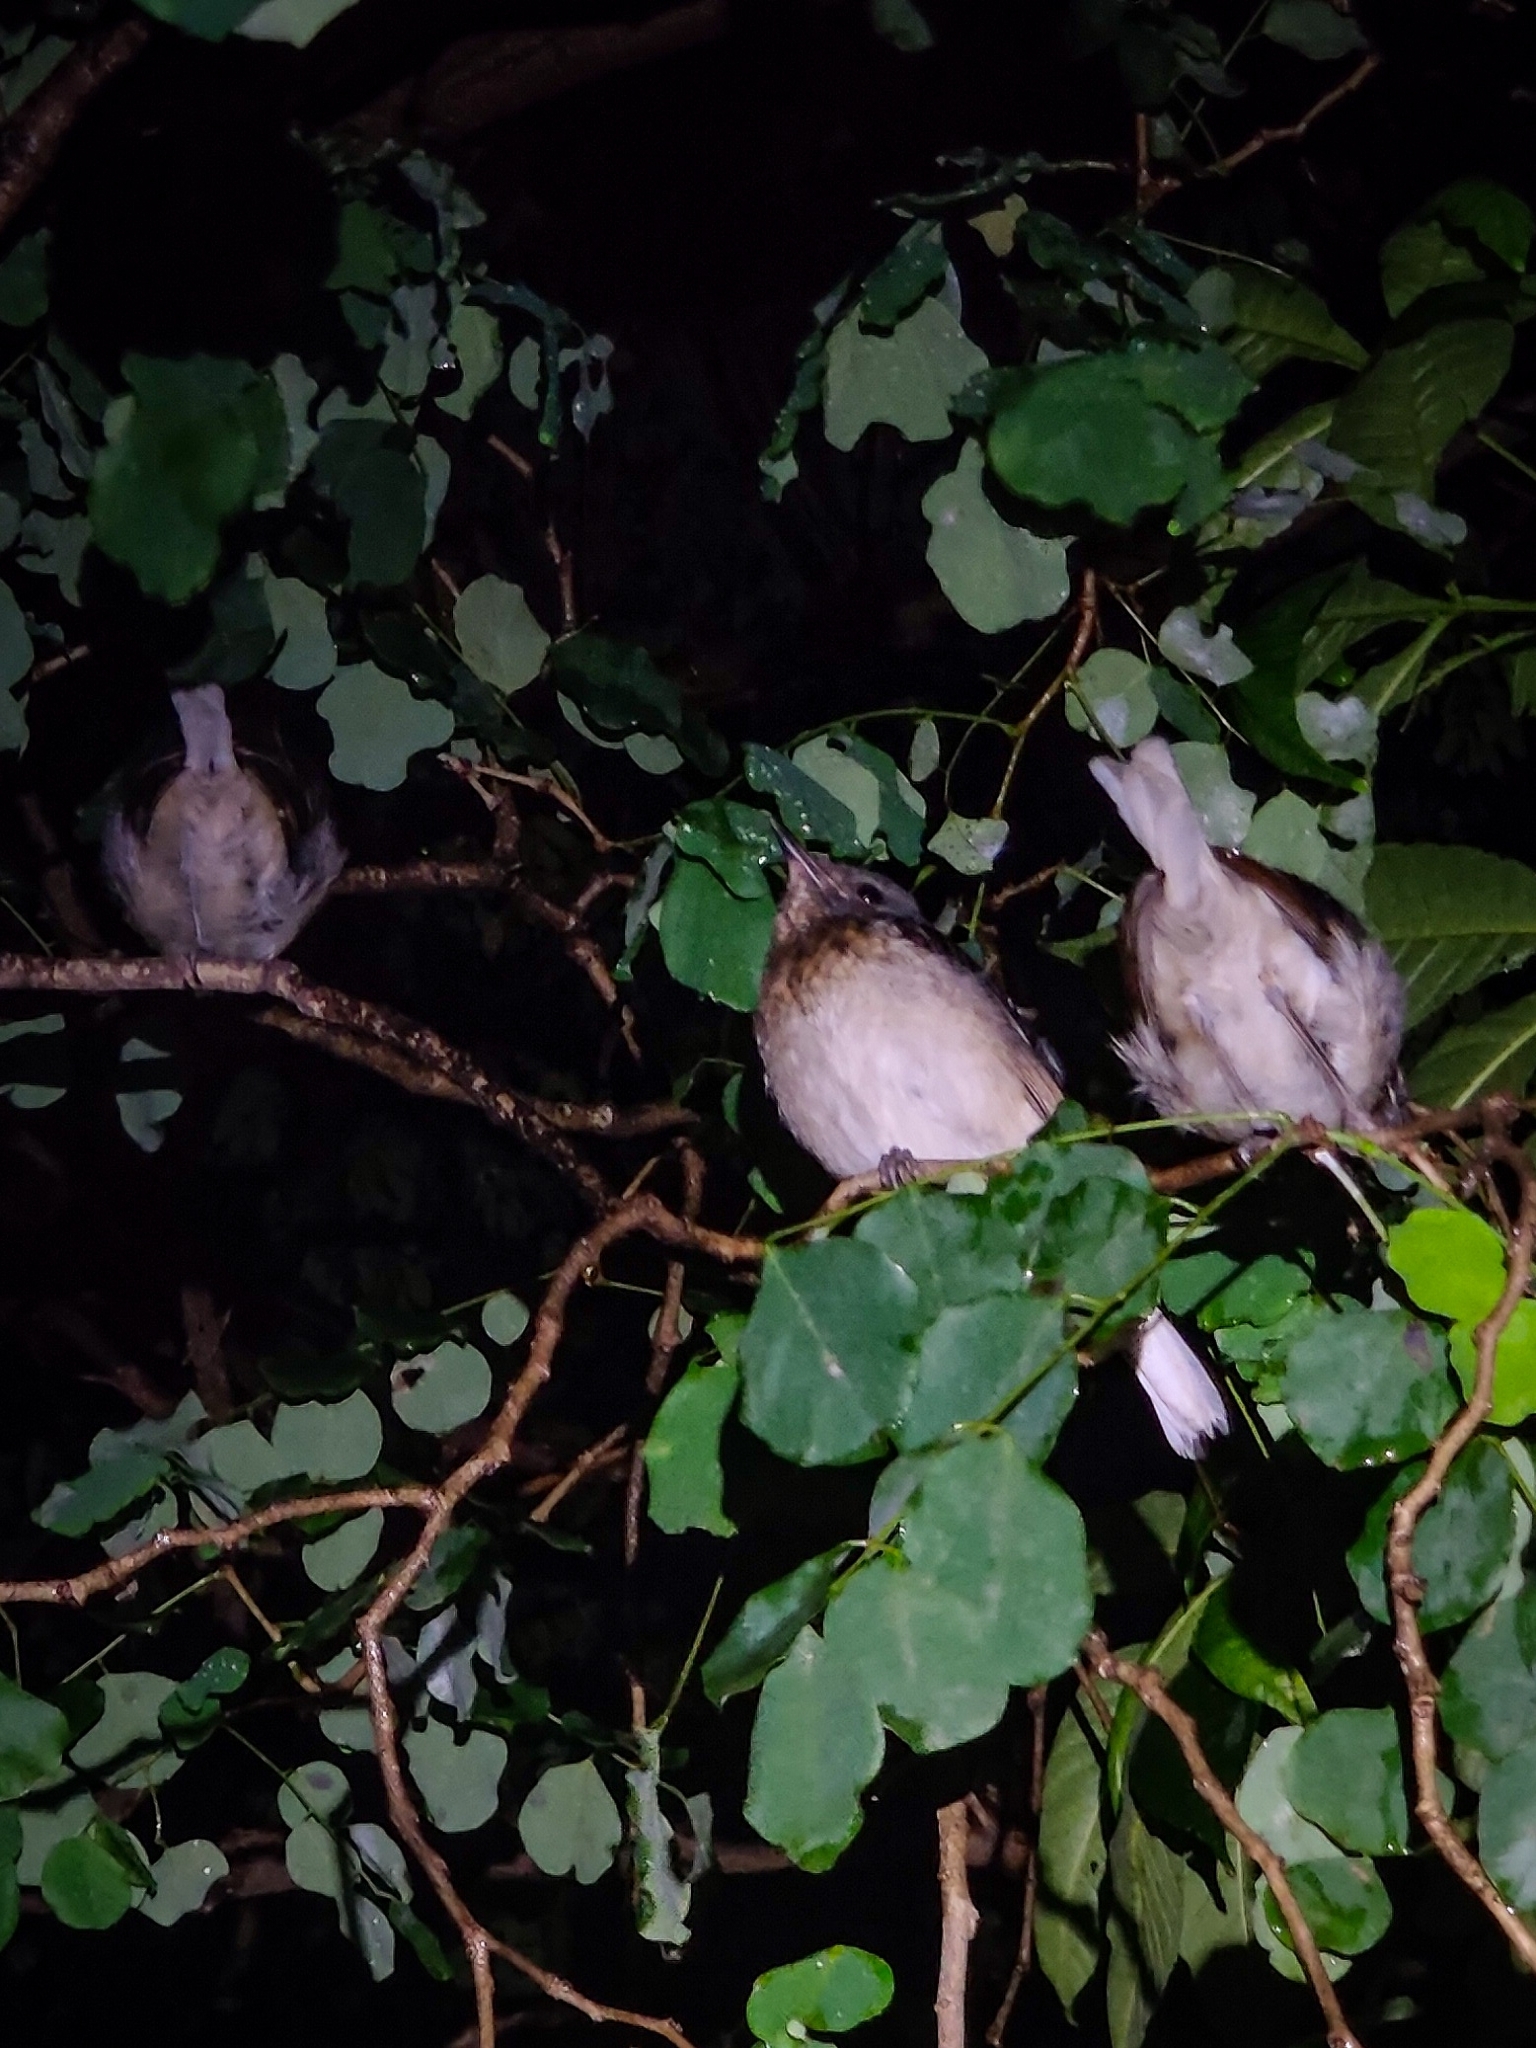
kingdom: Animalia
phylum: Chordata
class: Aves
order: Passeriformes
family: Muscicapidae
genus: Copsychus
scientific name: Copsychus saularis
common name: Oriental magpie-robin
